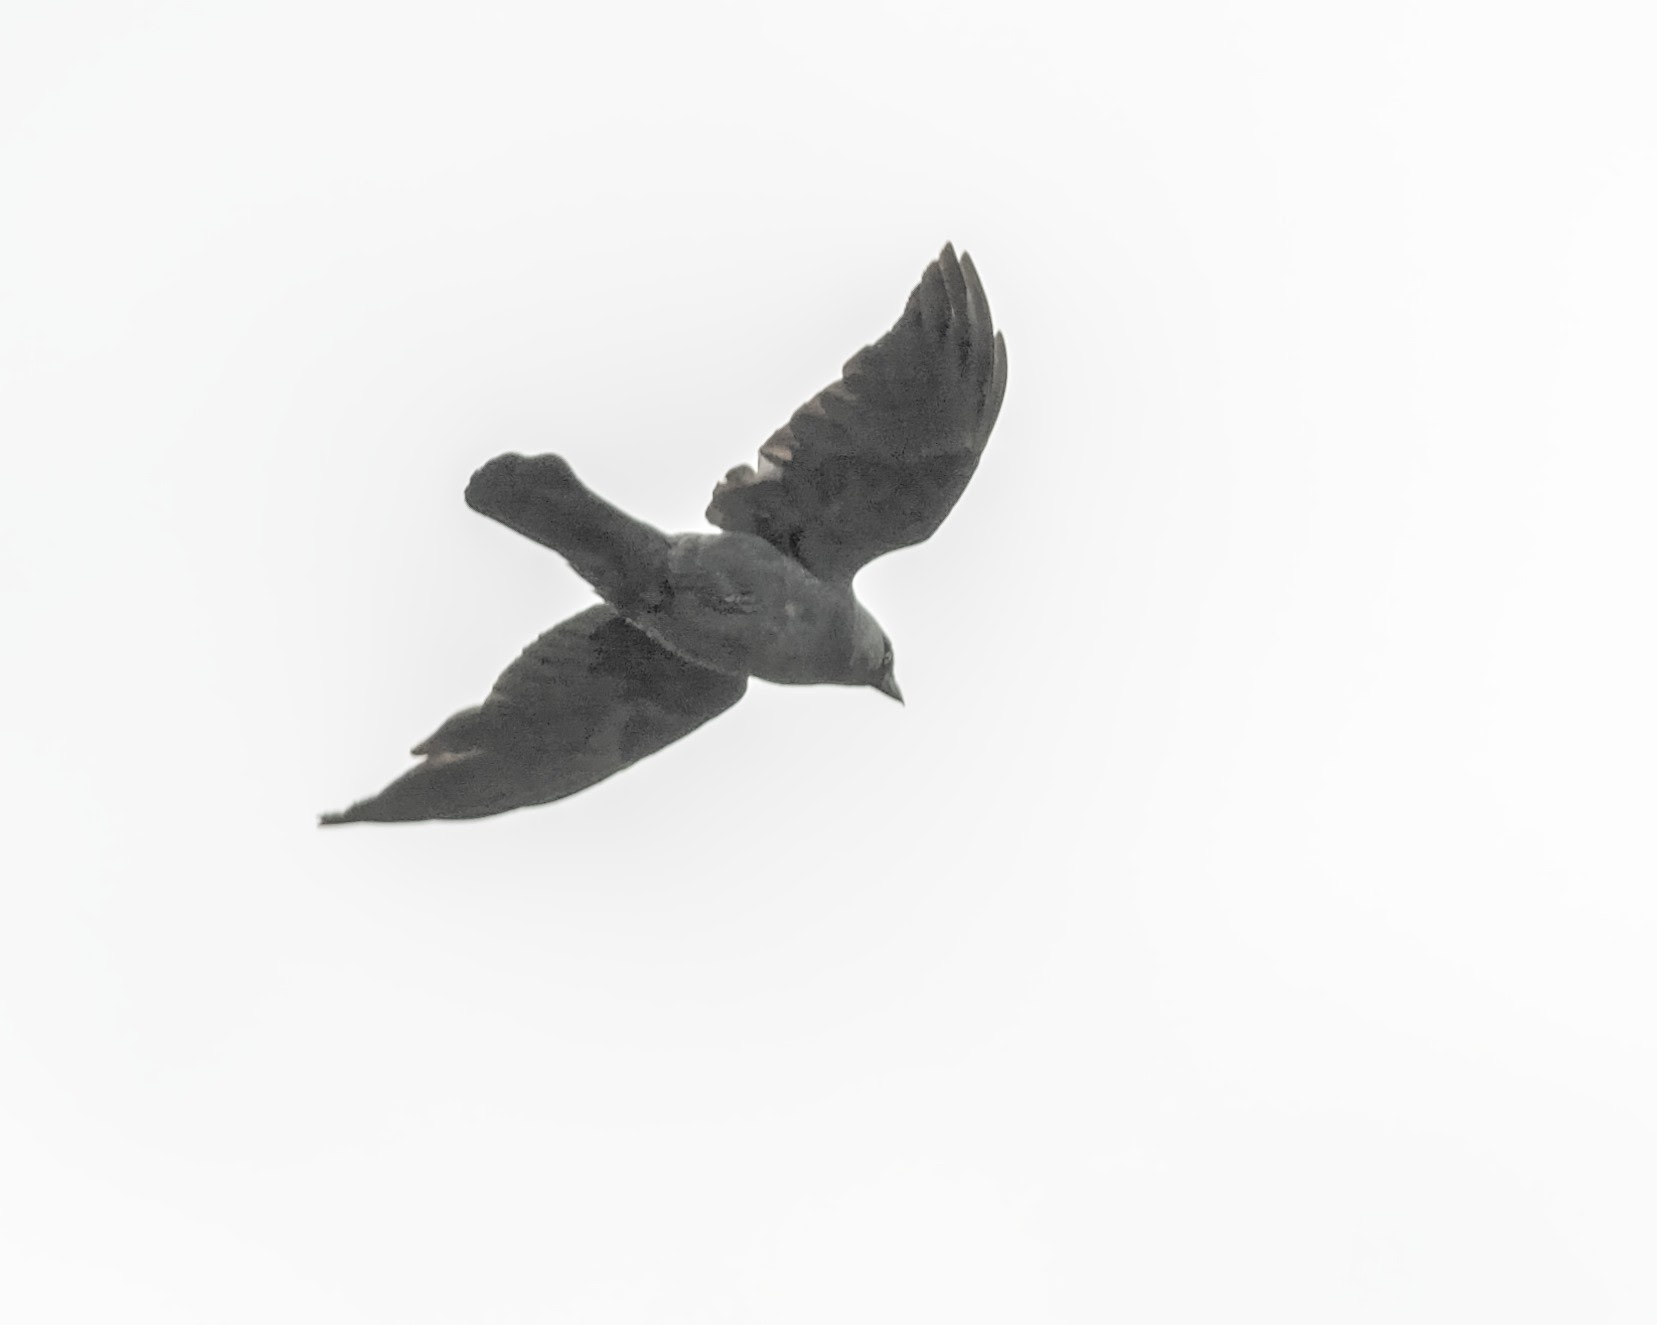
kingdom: Animalia
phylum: Chordata
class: Aves
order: Passeriformes
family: Corvidae
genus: Coloeus
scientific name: Coloeus monedula
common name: Western jackdaw
